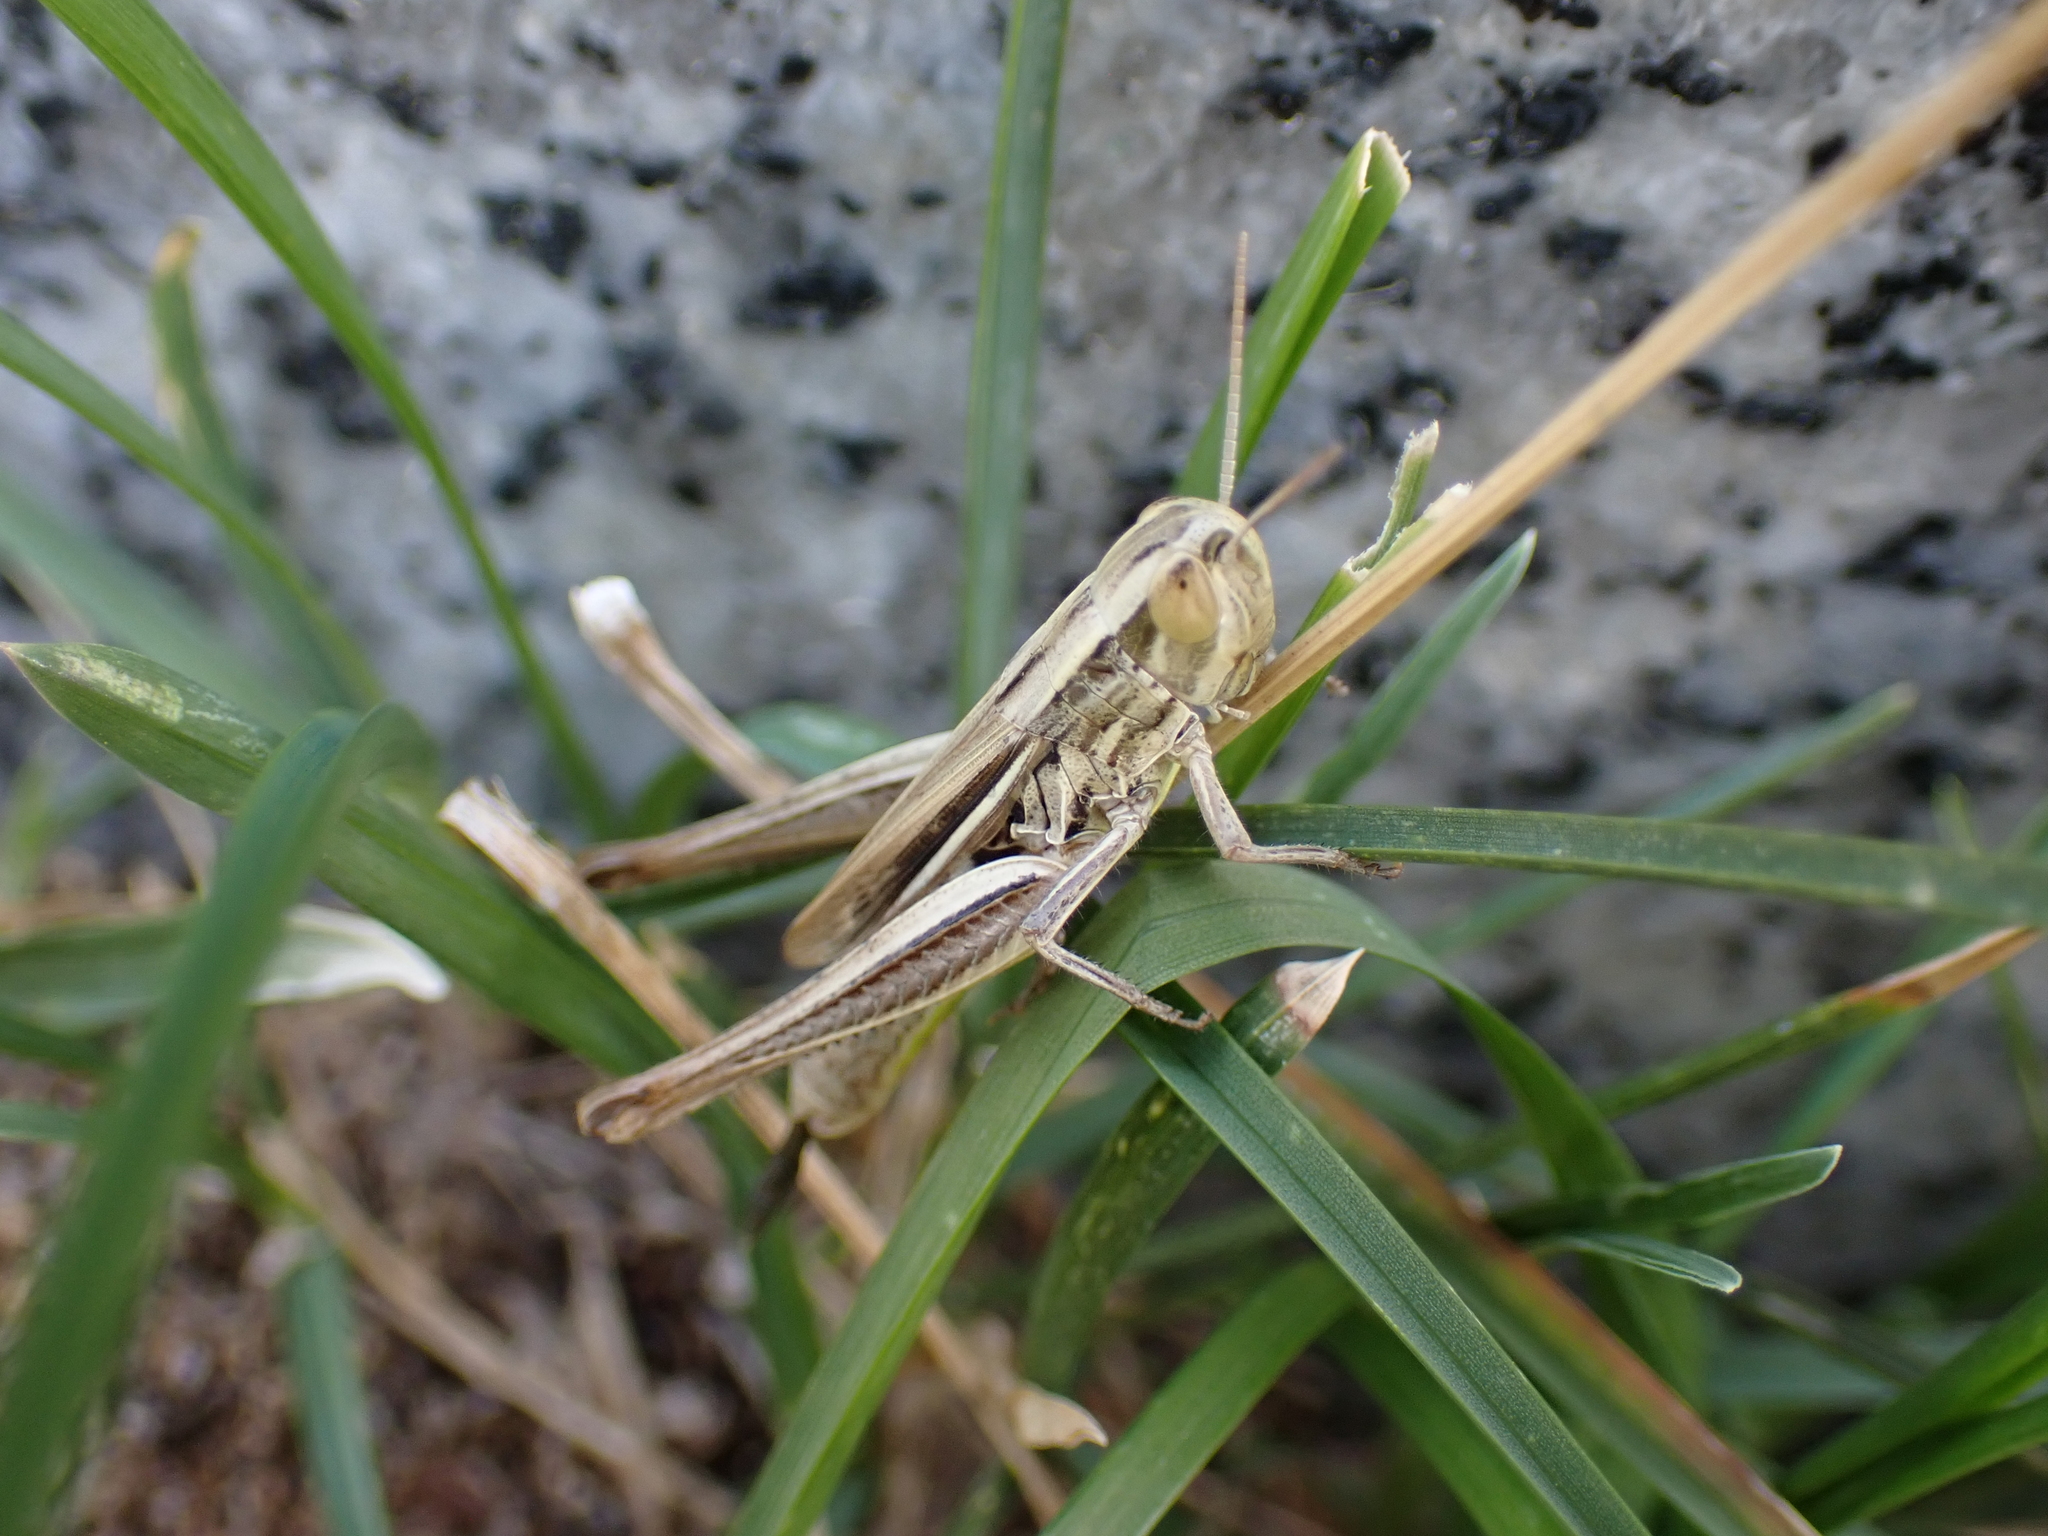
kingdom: Animalia
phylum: Arthropoda
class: Insecta
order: Orthoptera
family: Acrididae
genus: Euchorthippus
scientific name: Euchorthippus declivus
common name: Common straw grasshopper
